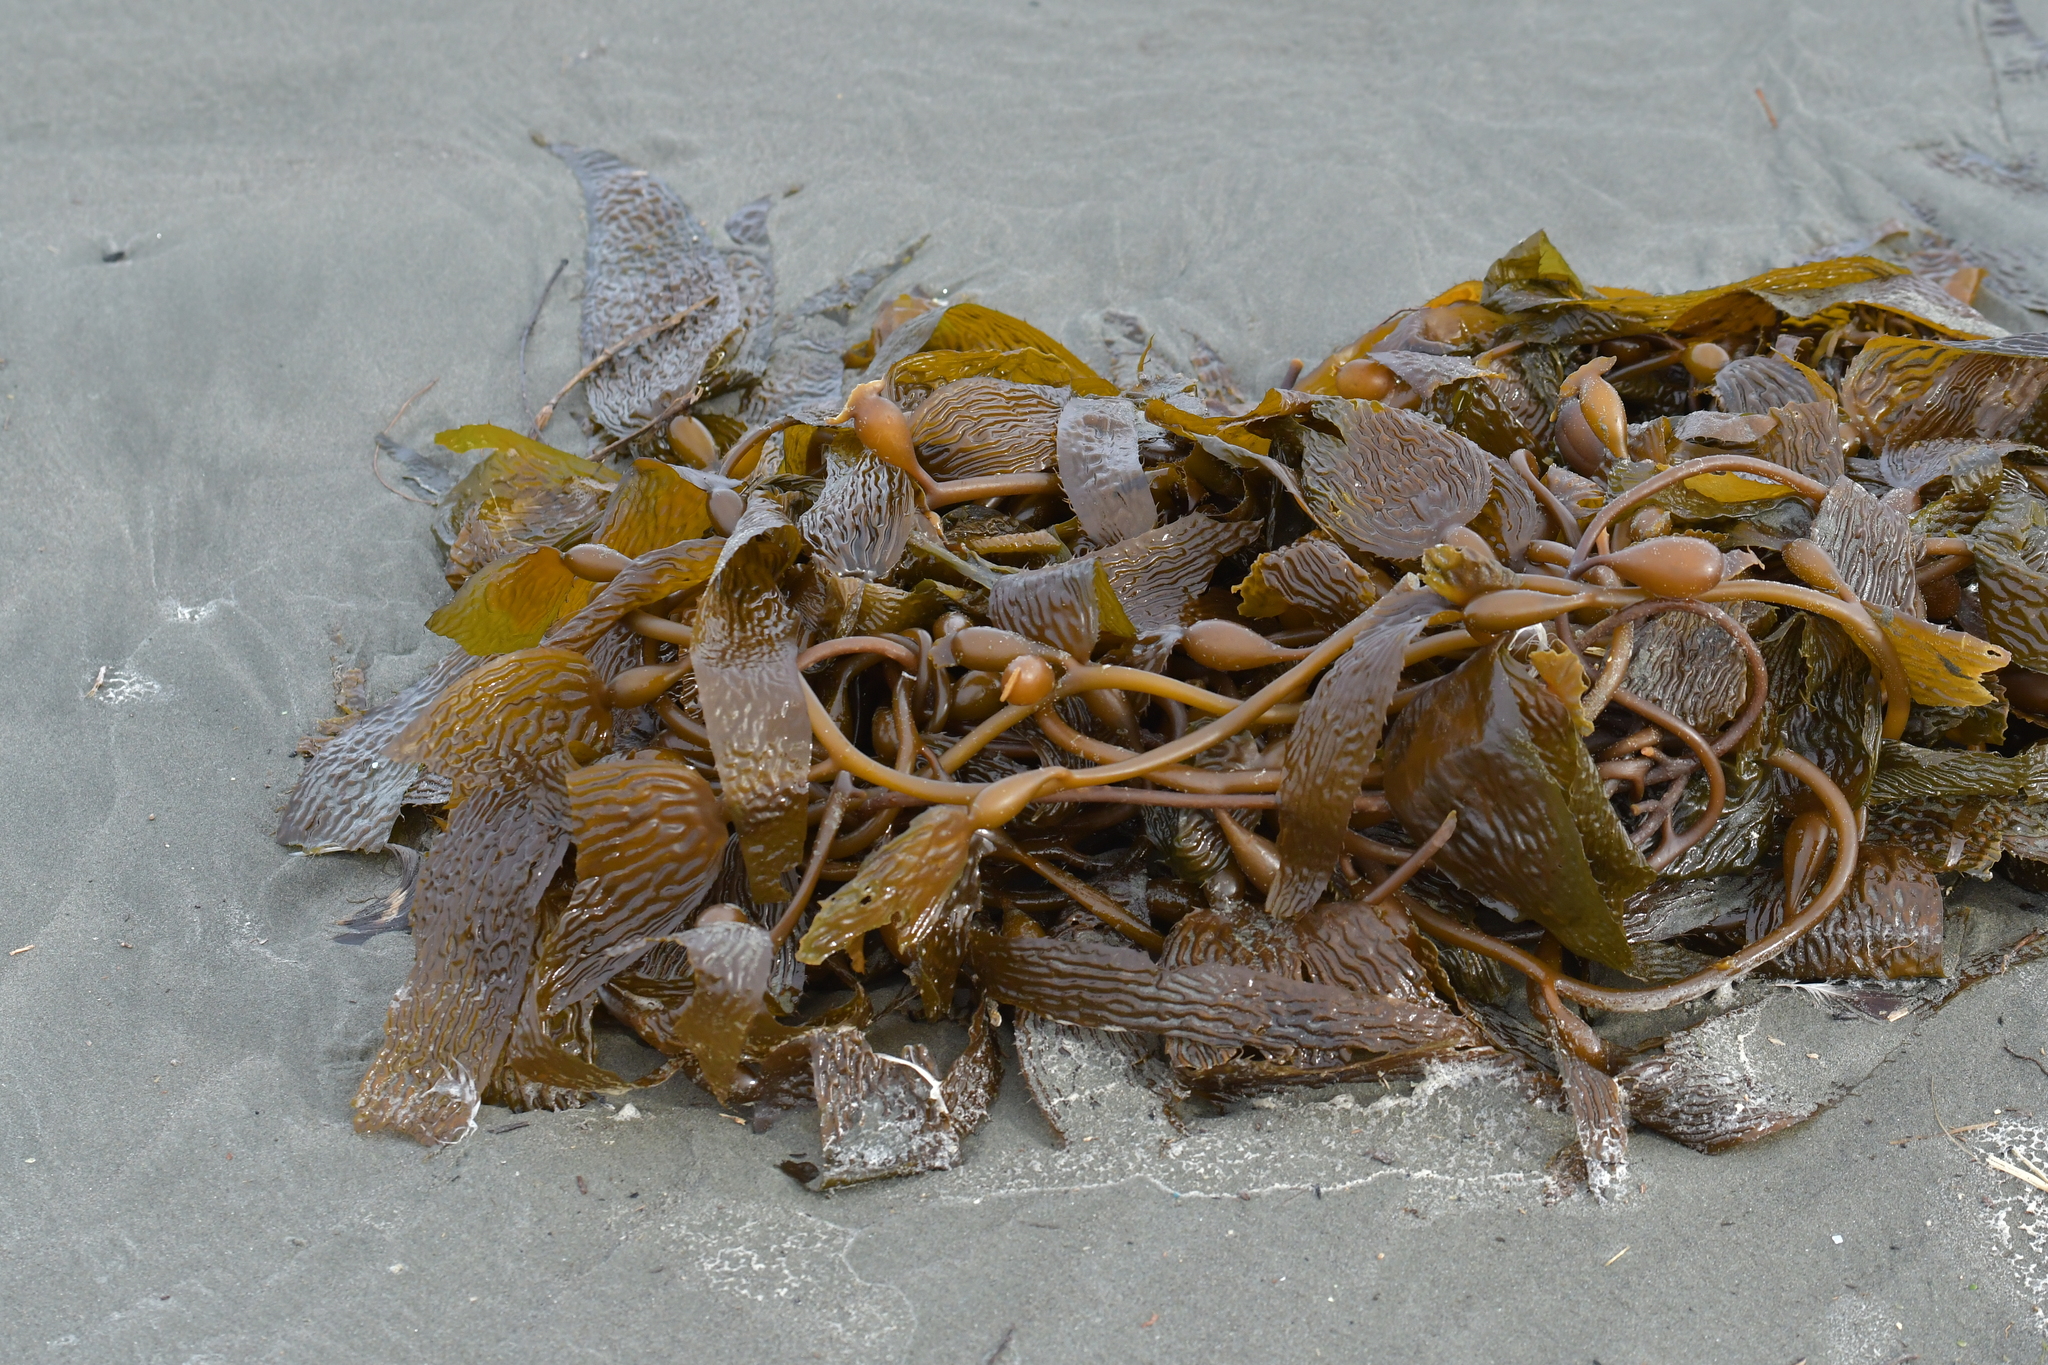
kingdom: Chromista
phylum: Ochrophyta
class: Phaeophyceae
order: Laminariales
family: Laminariaceae
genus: Macrocystis
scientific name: Macrocystis pyrifera
